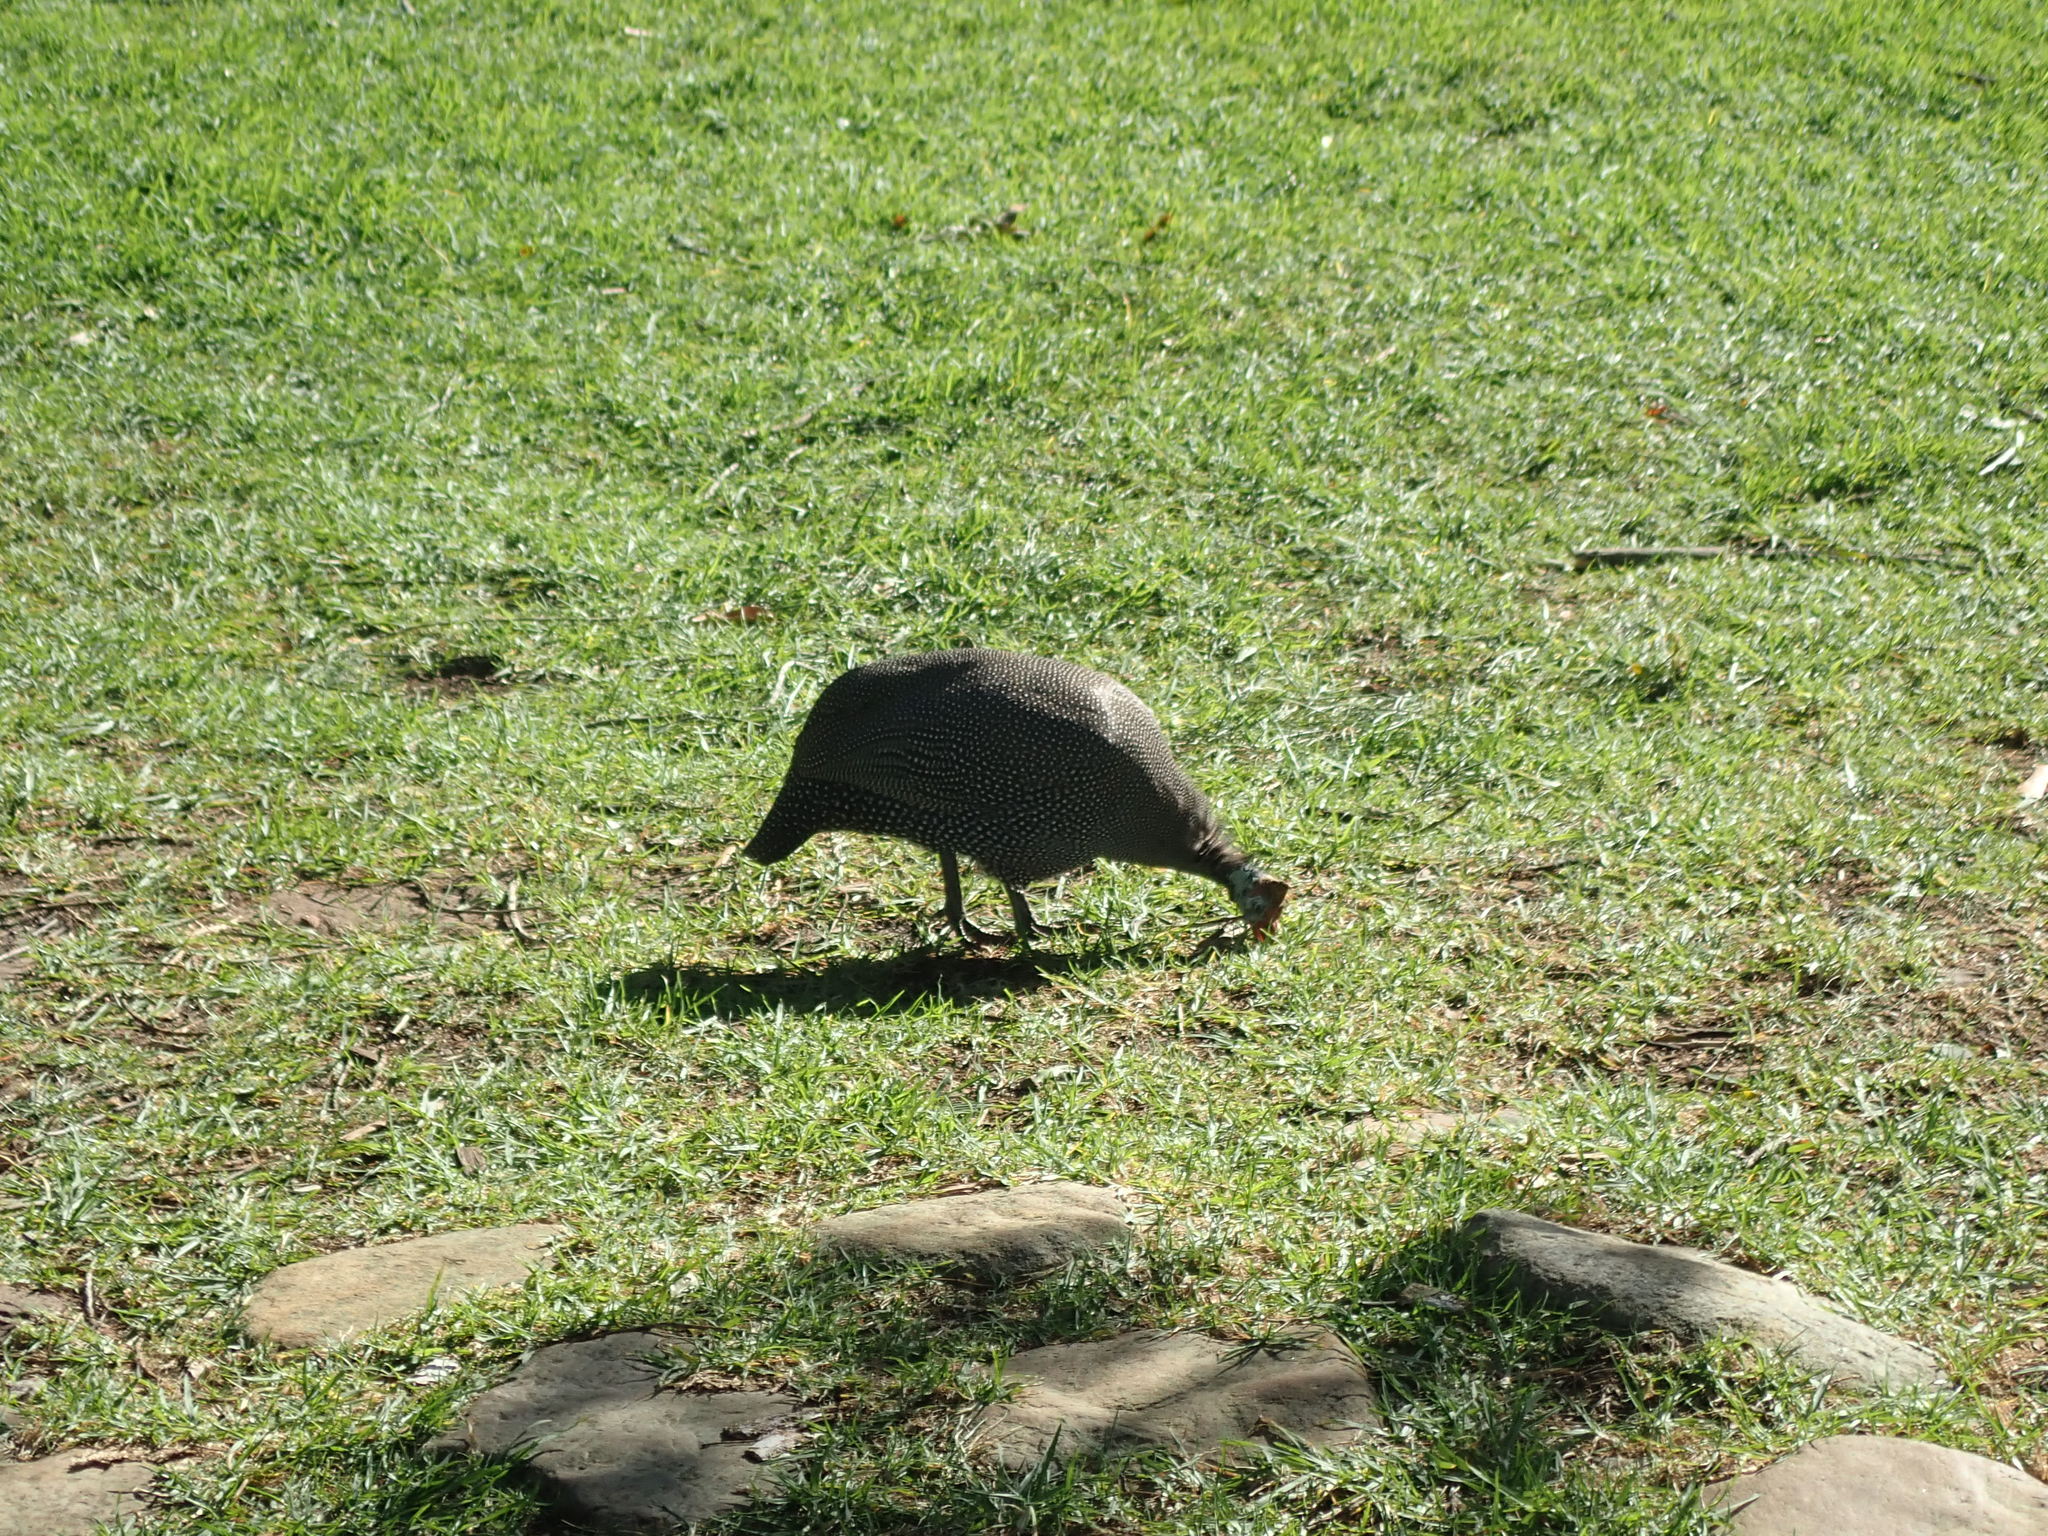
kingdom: Animalia
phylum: Chordata
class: Aves
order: Galliformes
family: Numididae
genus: Numida
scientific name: Numida meleagris
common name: Helmeted guineafowl
